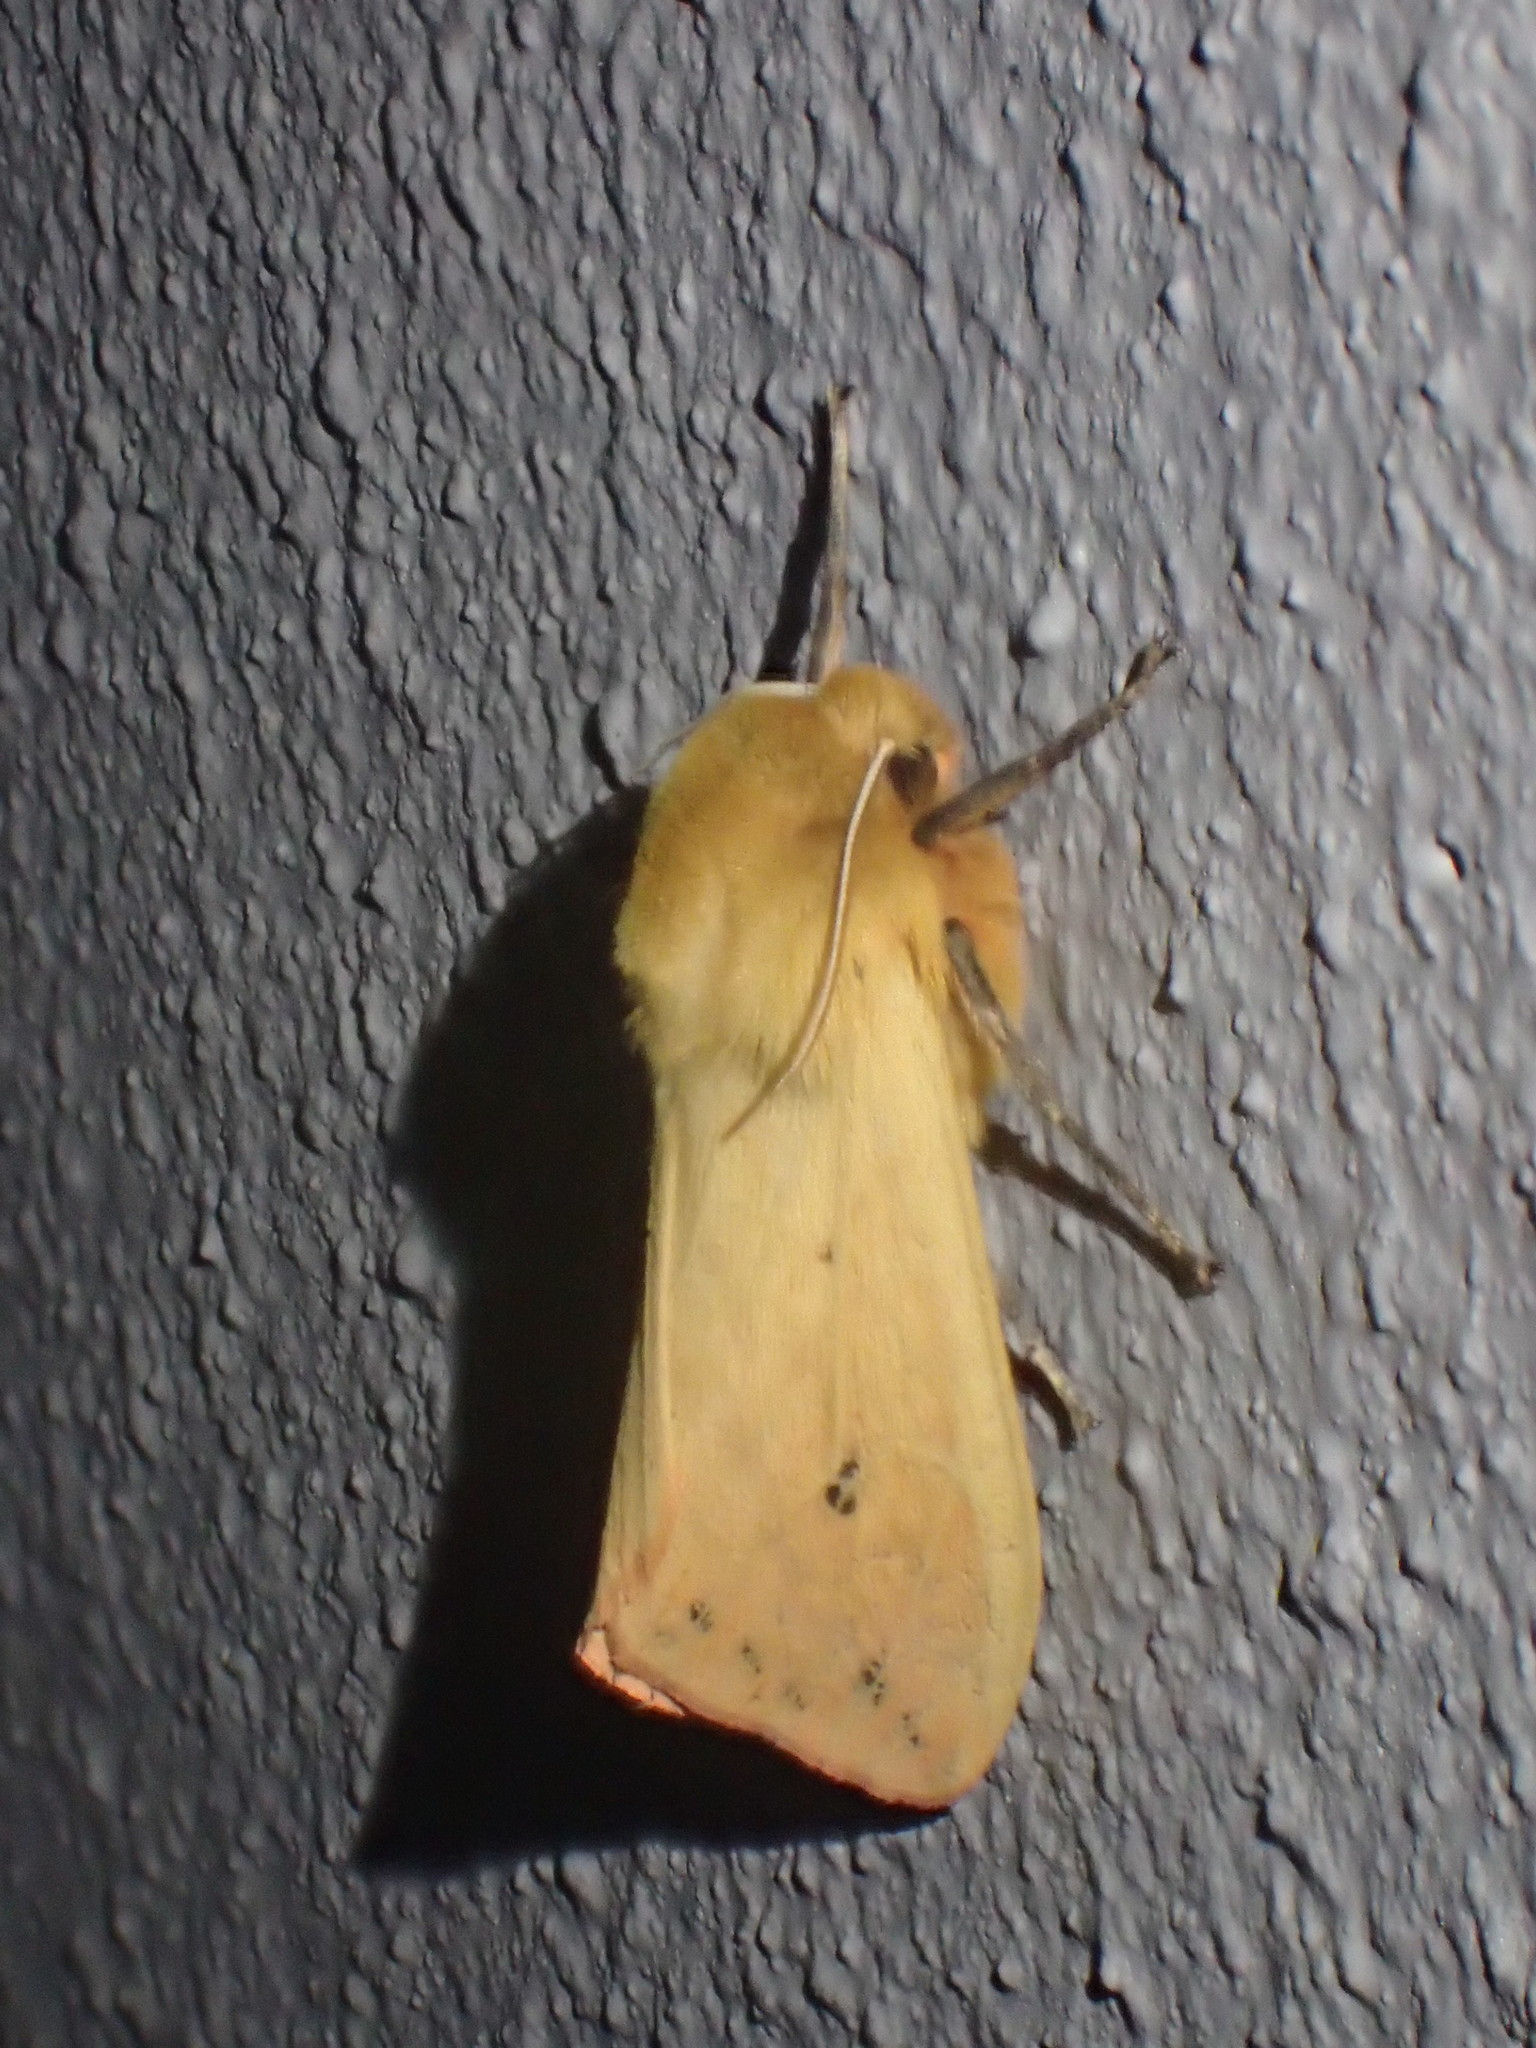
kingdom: Animalia
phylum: Arthropoda
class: Insecta
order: Lepidoptera
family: Erebidae
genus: Pyrrharctia
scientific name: Pyrrharctia isabella
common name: Isabella tiger moth
